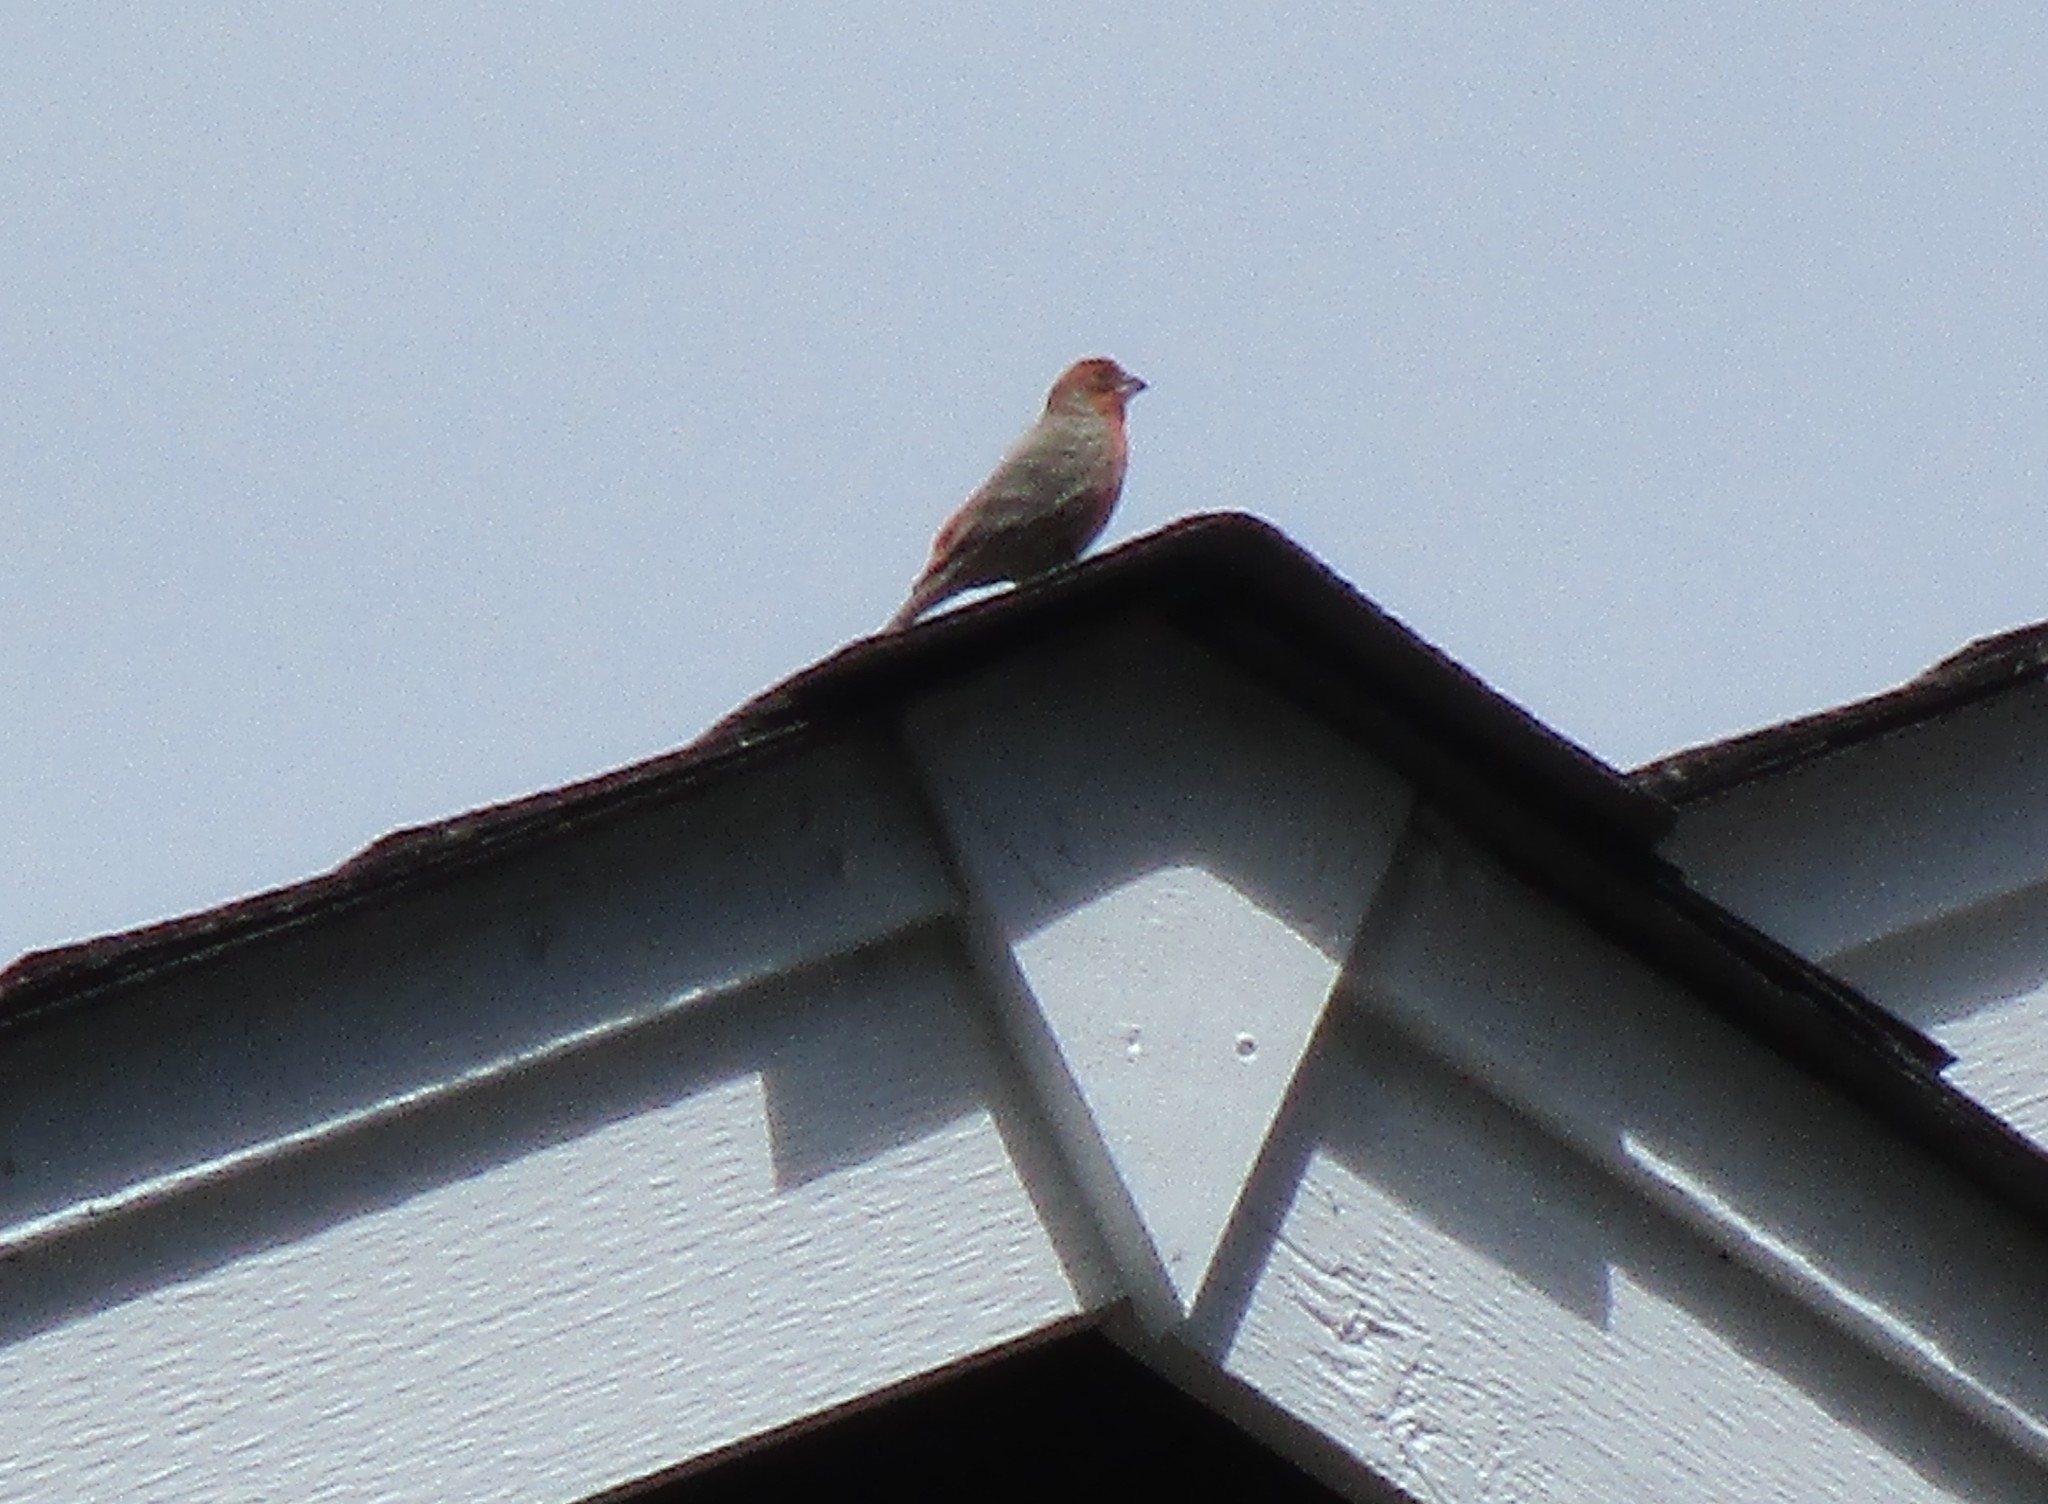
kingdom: Animalia
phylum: Chordata
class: Aves
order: Passeriformes
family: Fringillidae
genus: Haemorhous
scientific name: Haemorhous mexicanus
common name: House finch
